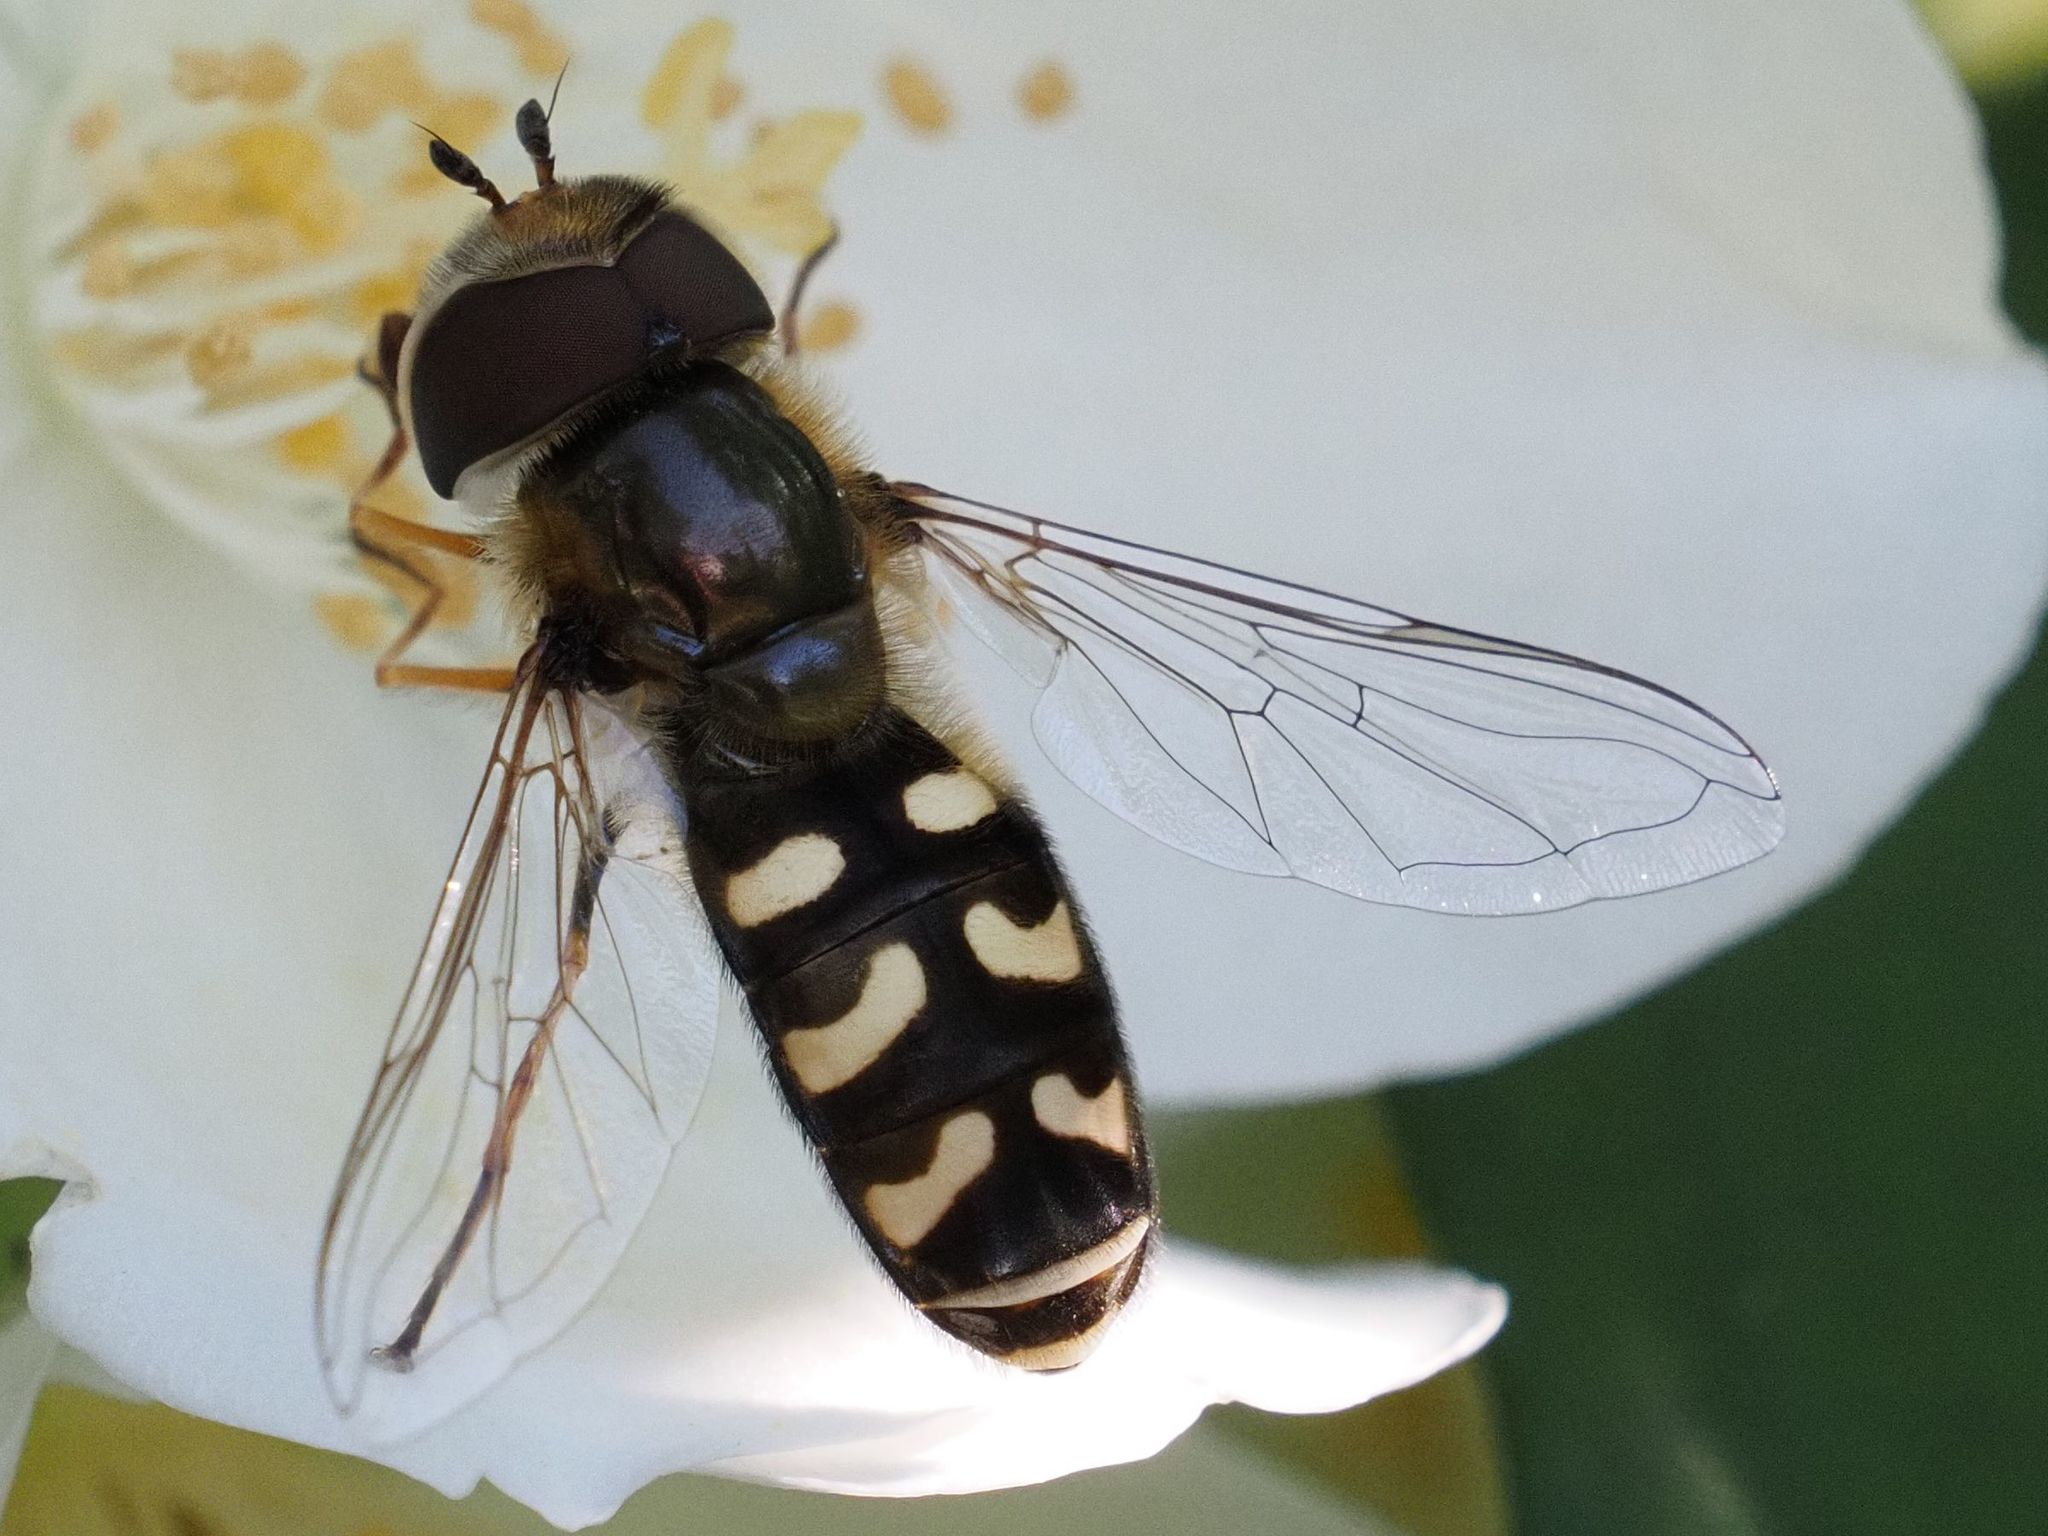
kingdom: Animalia
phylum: Arthropoda
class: Insecta
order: Diptera
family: Syrphidae
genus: Scaeva
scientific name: Scaeva pyrastri
